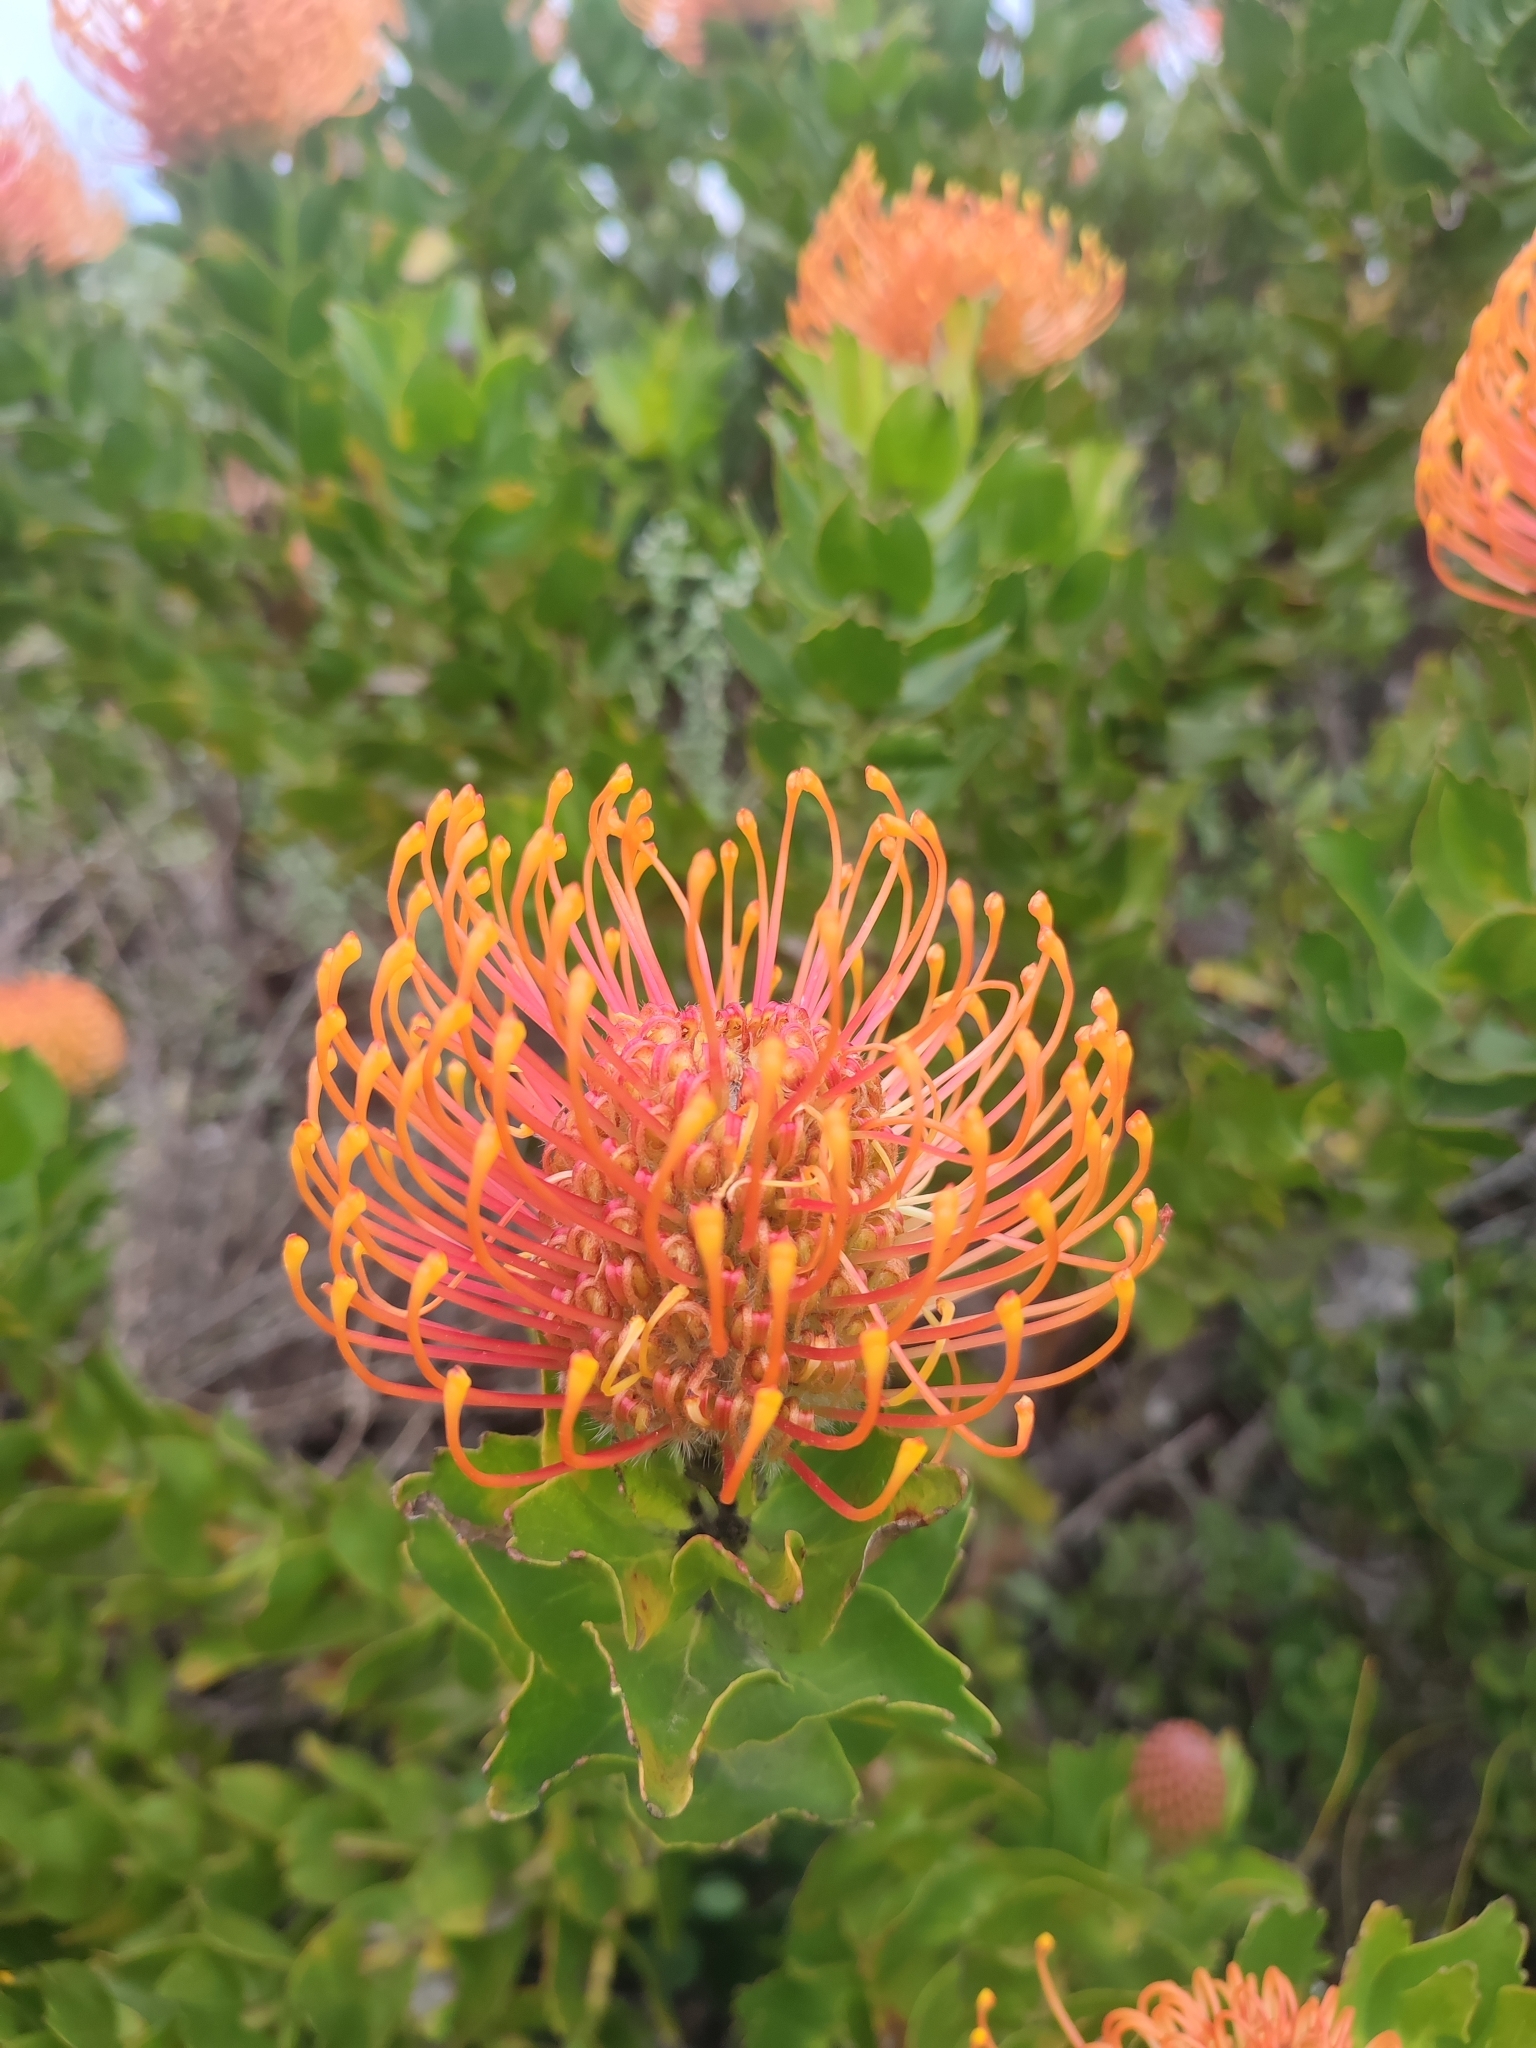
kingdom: Plantae
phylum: Tracheophyta
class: Magnoliopsida
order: Proteales
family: Proteaceae
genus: Leucospermum
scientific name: Leucospermum patersonii
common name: False tree pincushion
